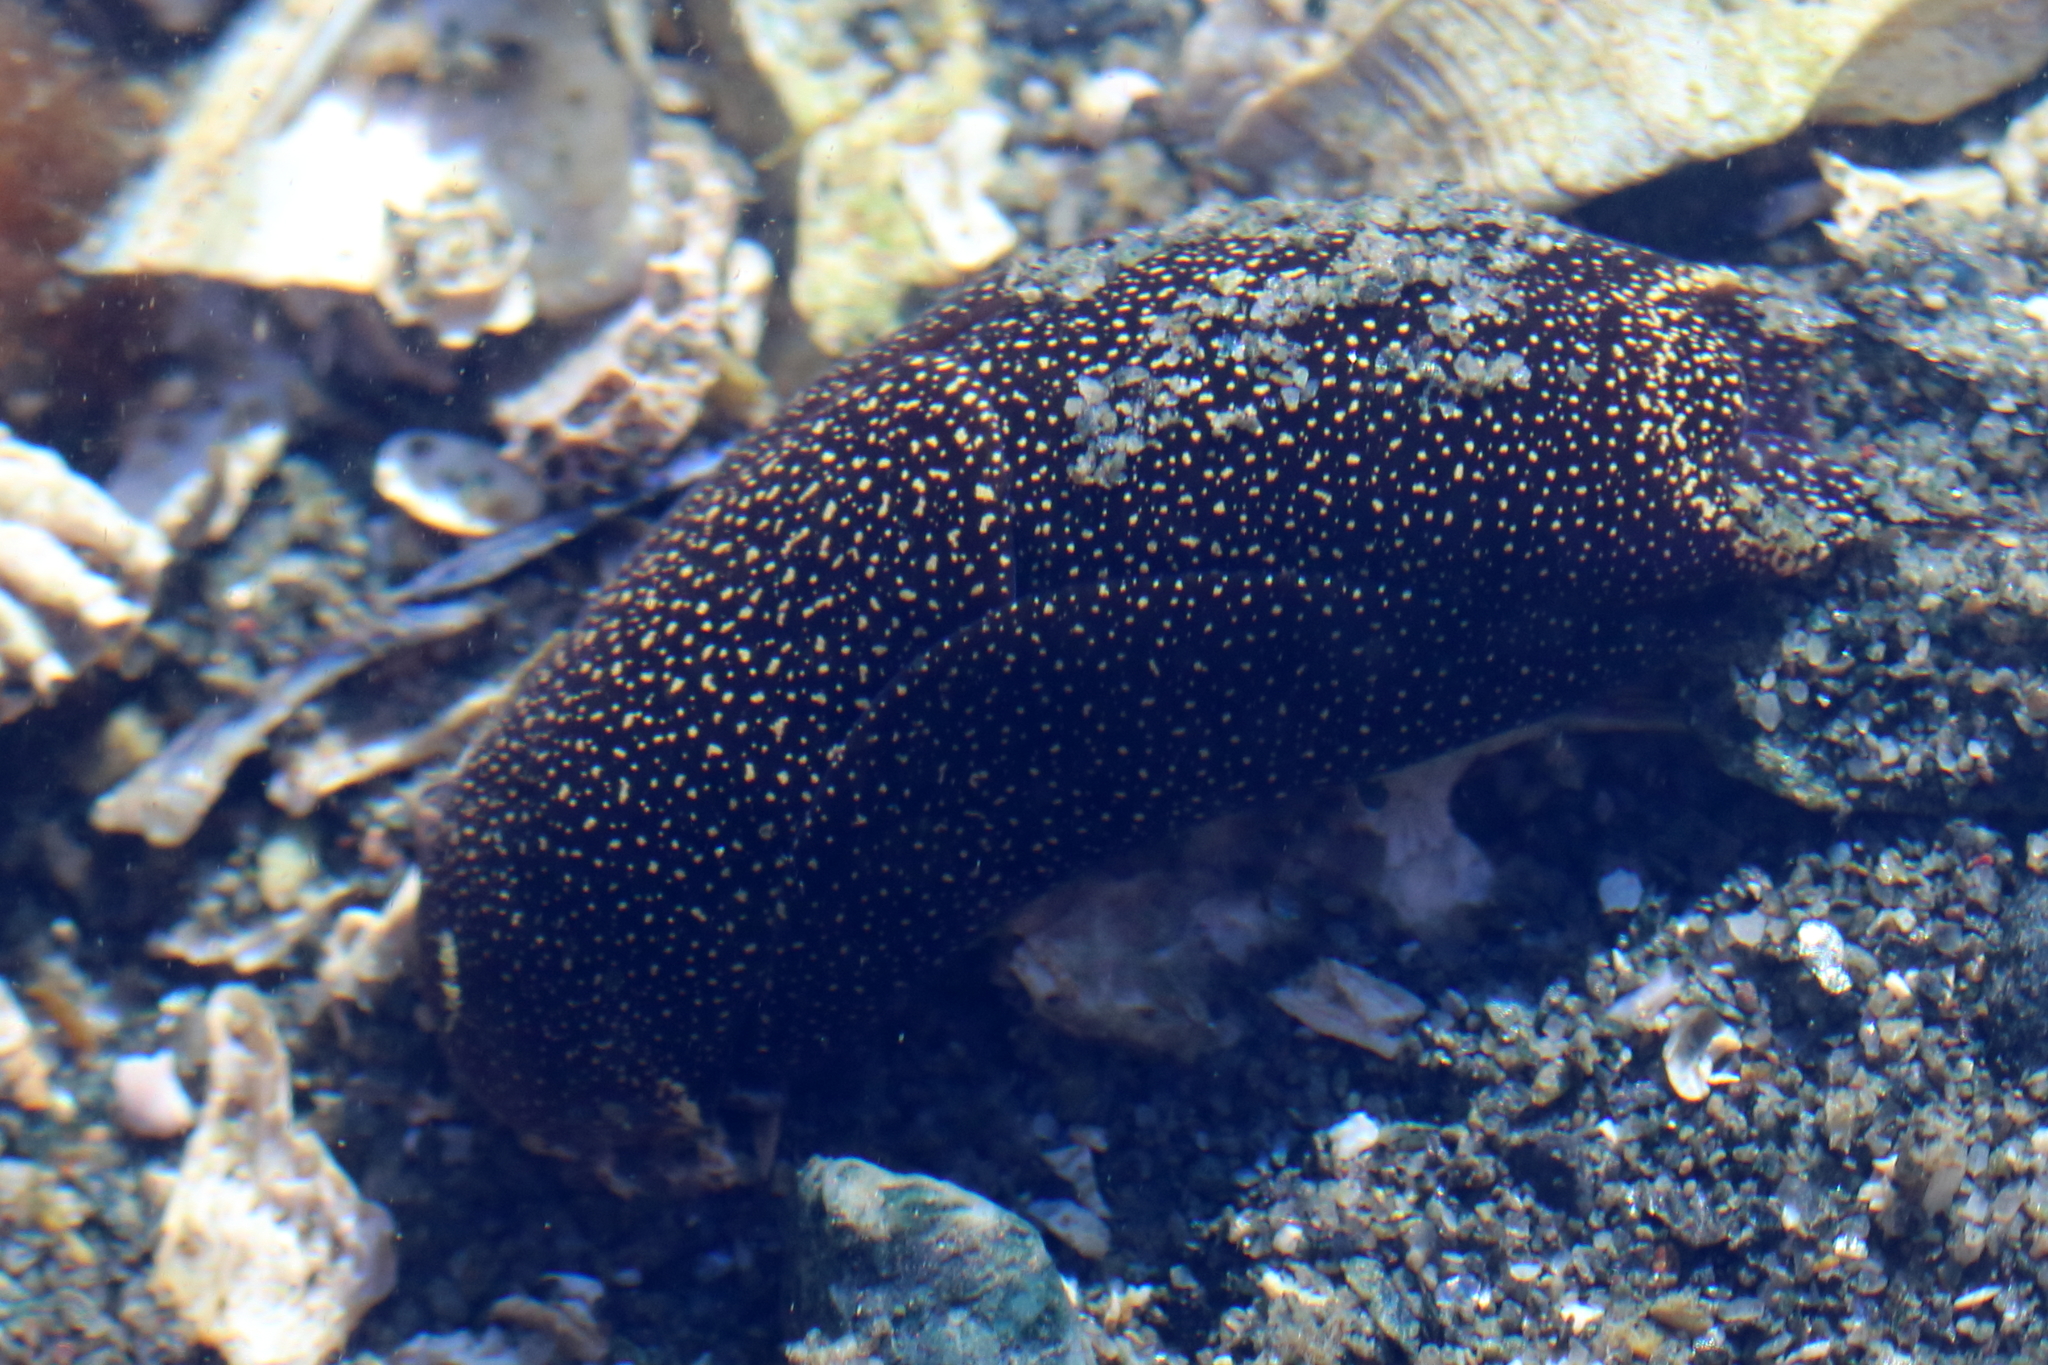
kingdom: Animalia
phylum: Mollusca
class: Gastropoda
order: Cephalaspidea
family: Aglajidae
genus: Aglaja
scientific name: Aglaja ocelligera
